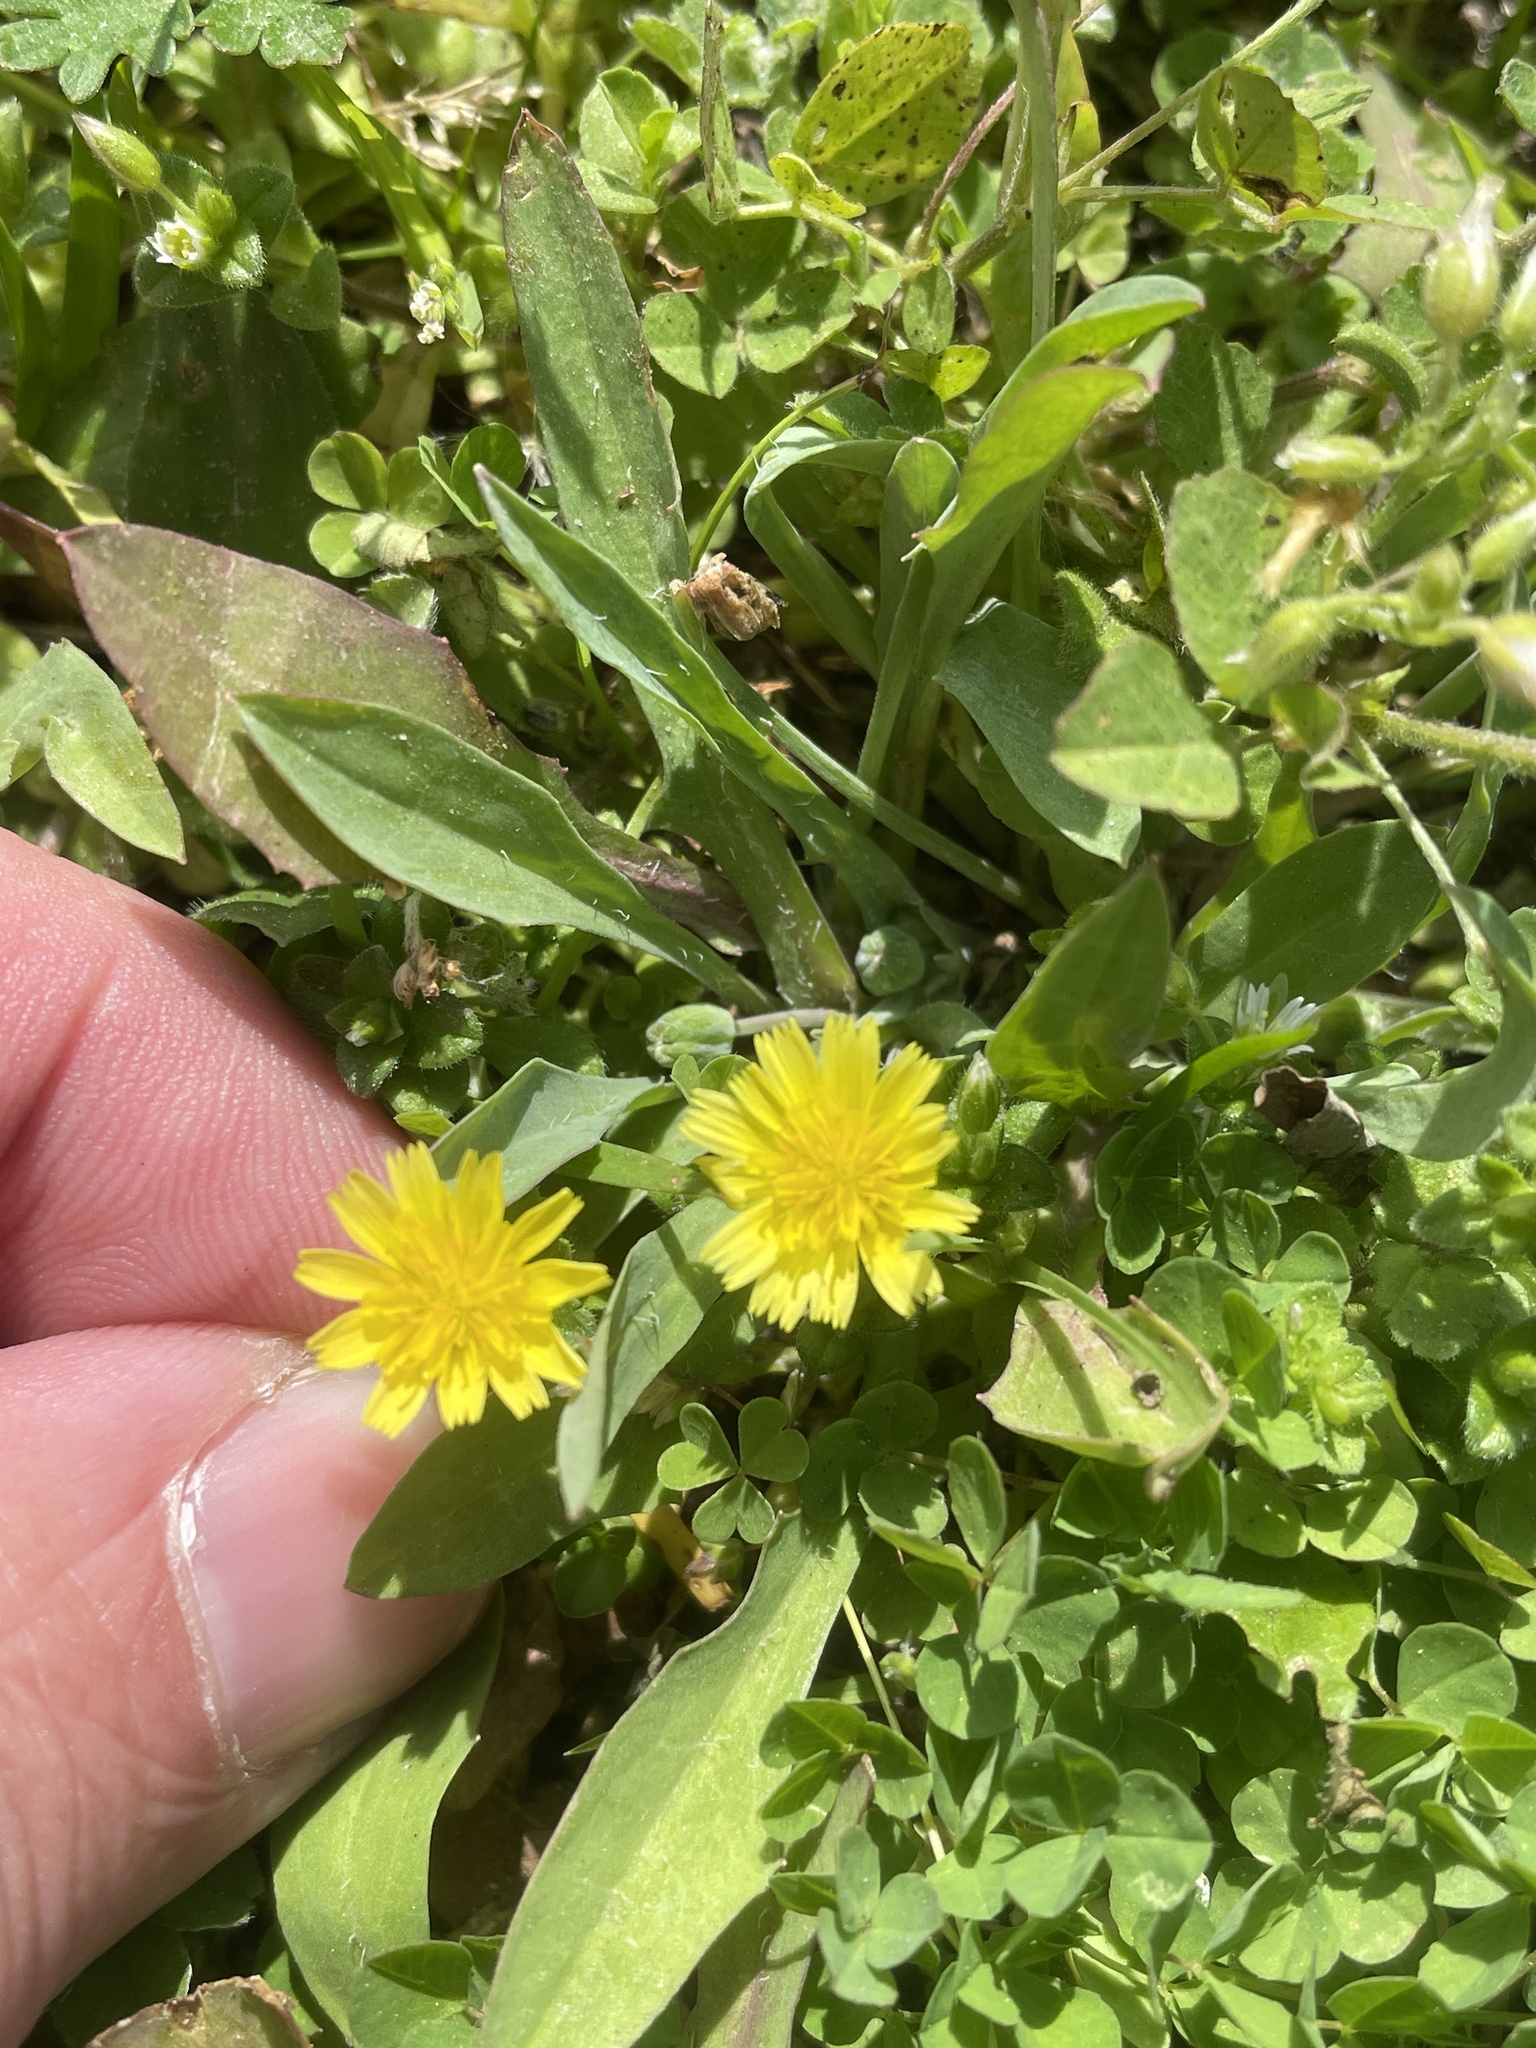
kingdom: Plantae
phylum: Tracheophyta
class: Magnoliopsida
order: Asterales
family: Asteraceae
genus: Krigia
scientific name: Krigia cespitosa
